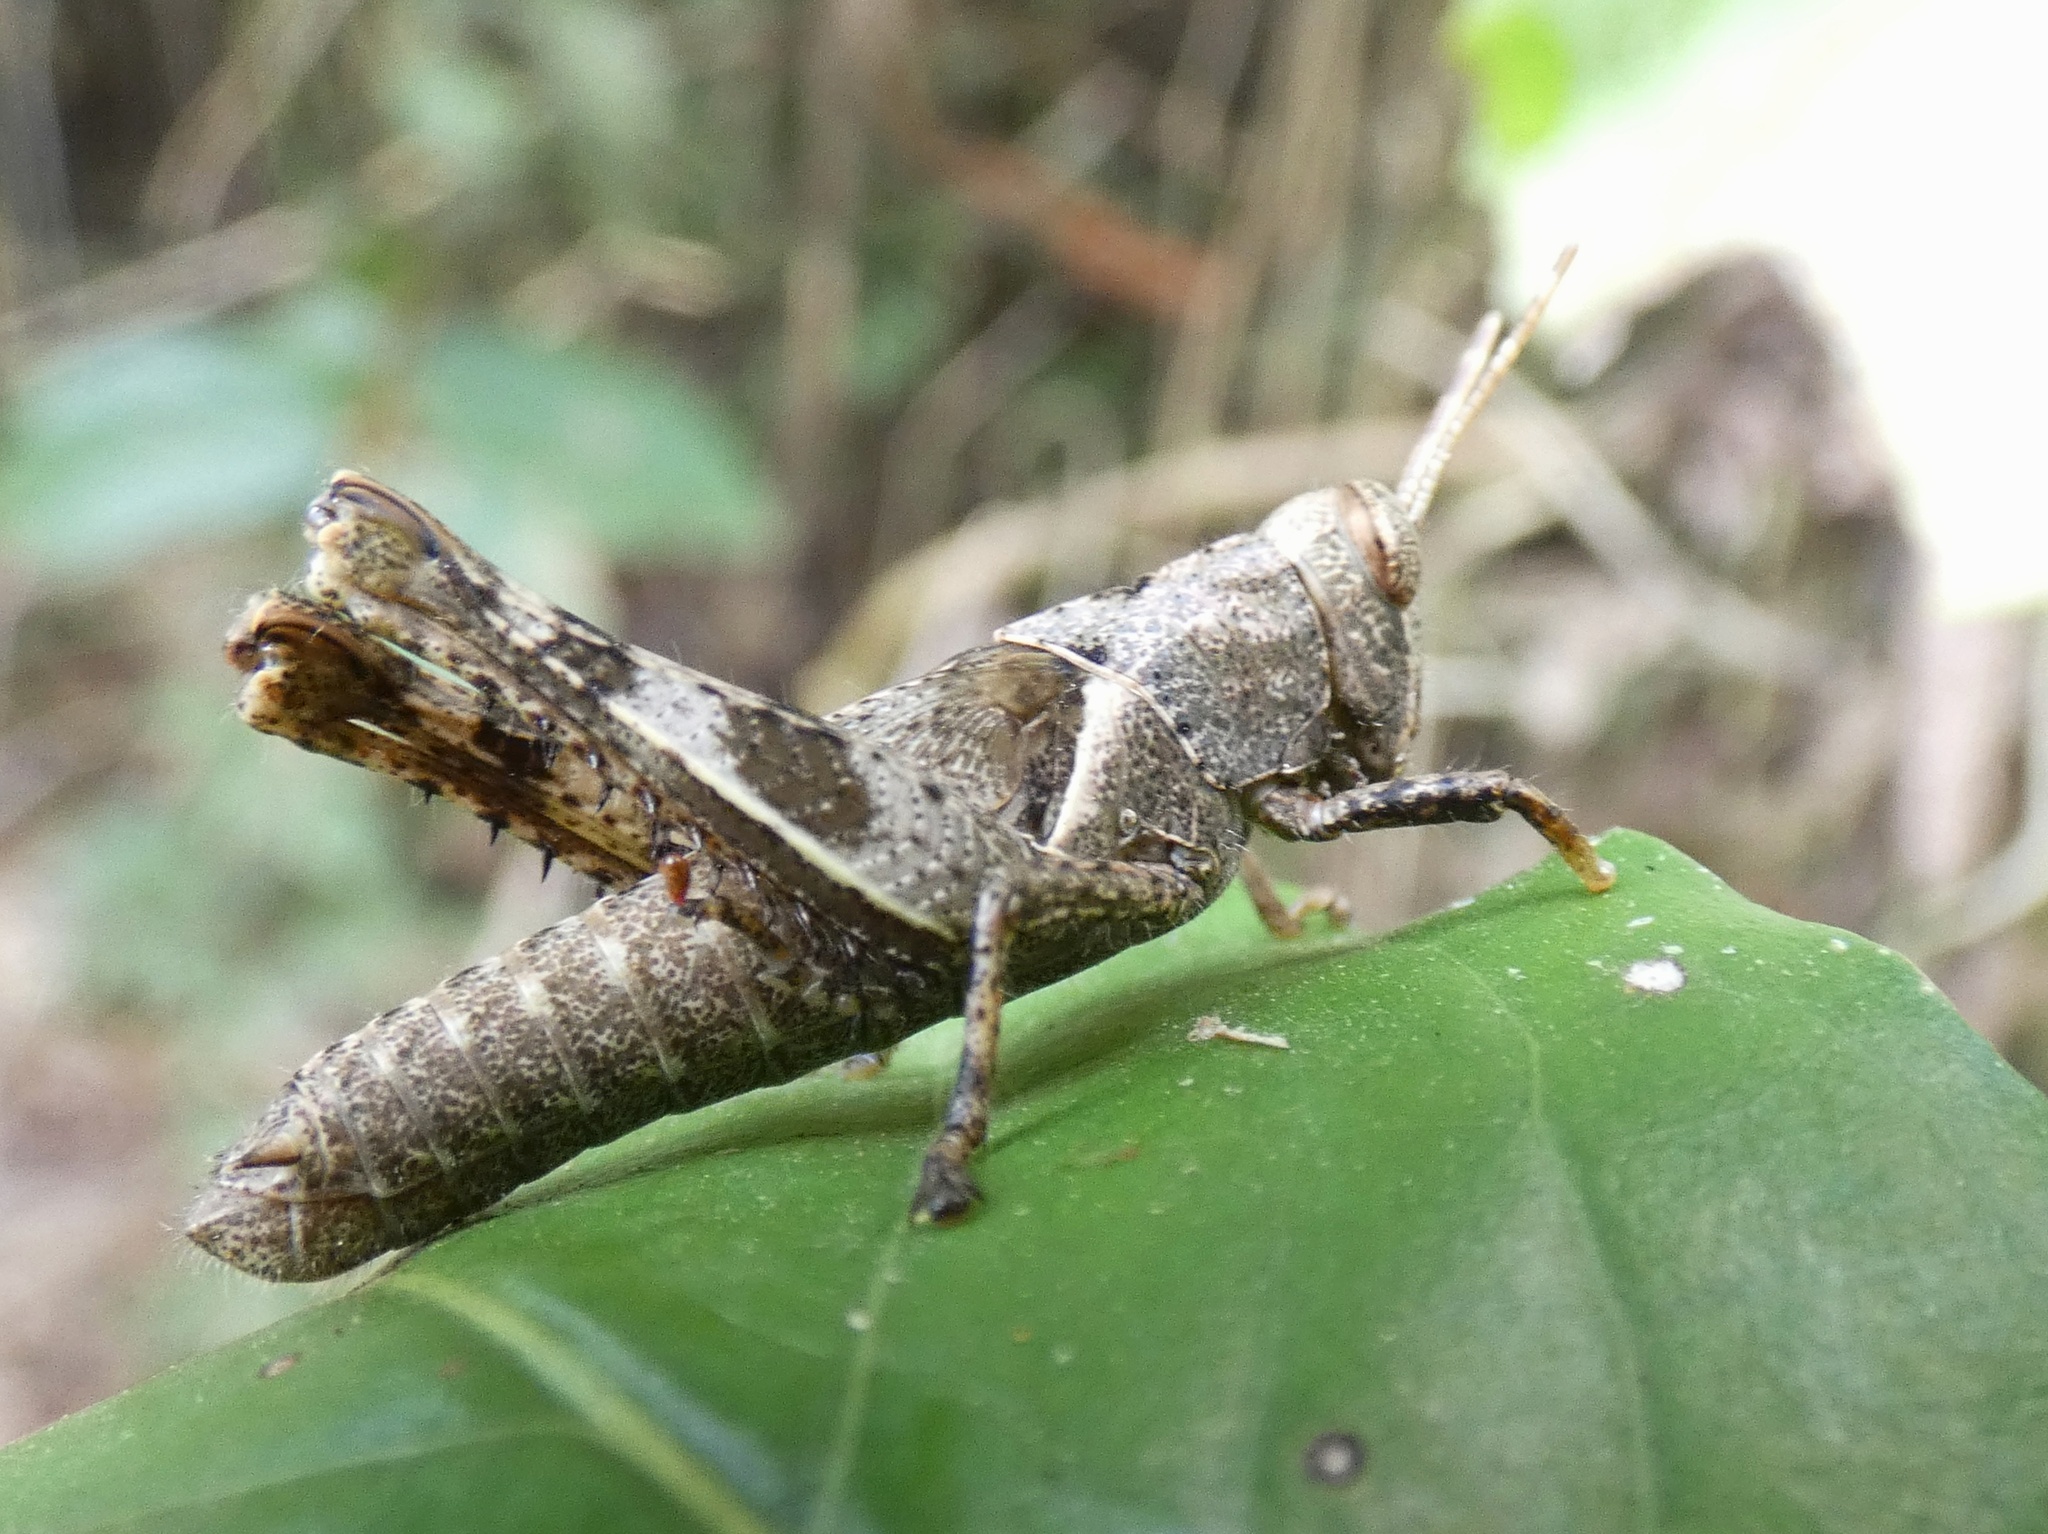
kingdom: Animalia
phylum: Arthropoda
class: Insecta
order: Orthoptera
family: Acrididae
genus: Abracris
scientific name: Abracris flavolineata
